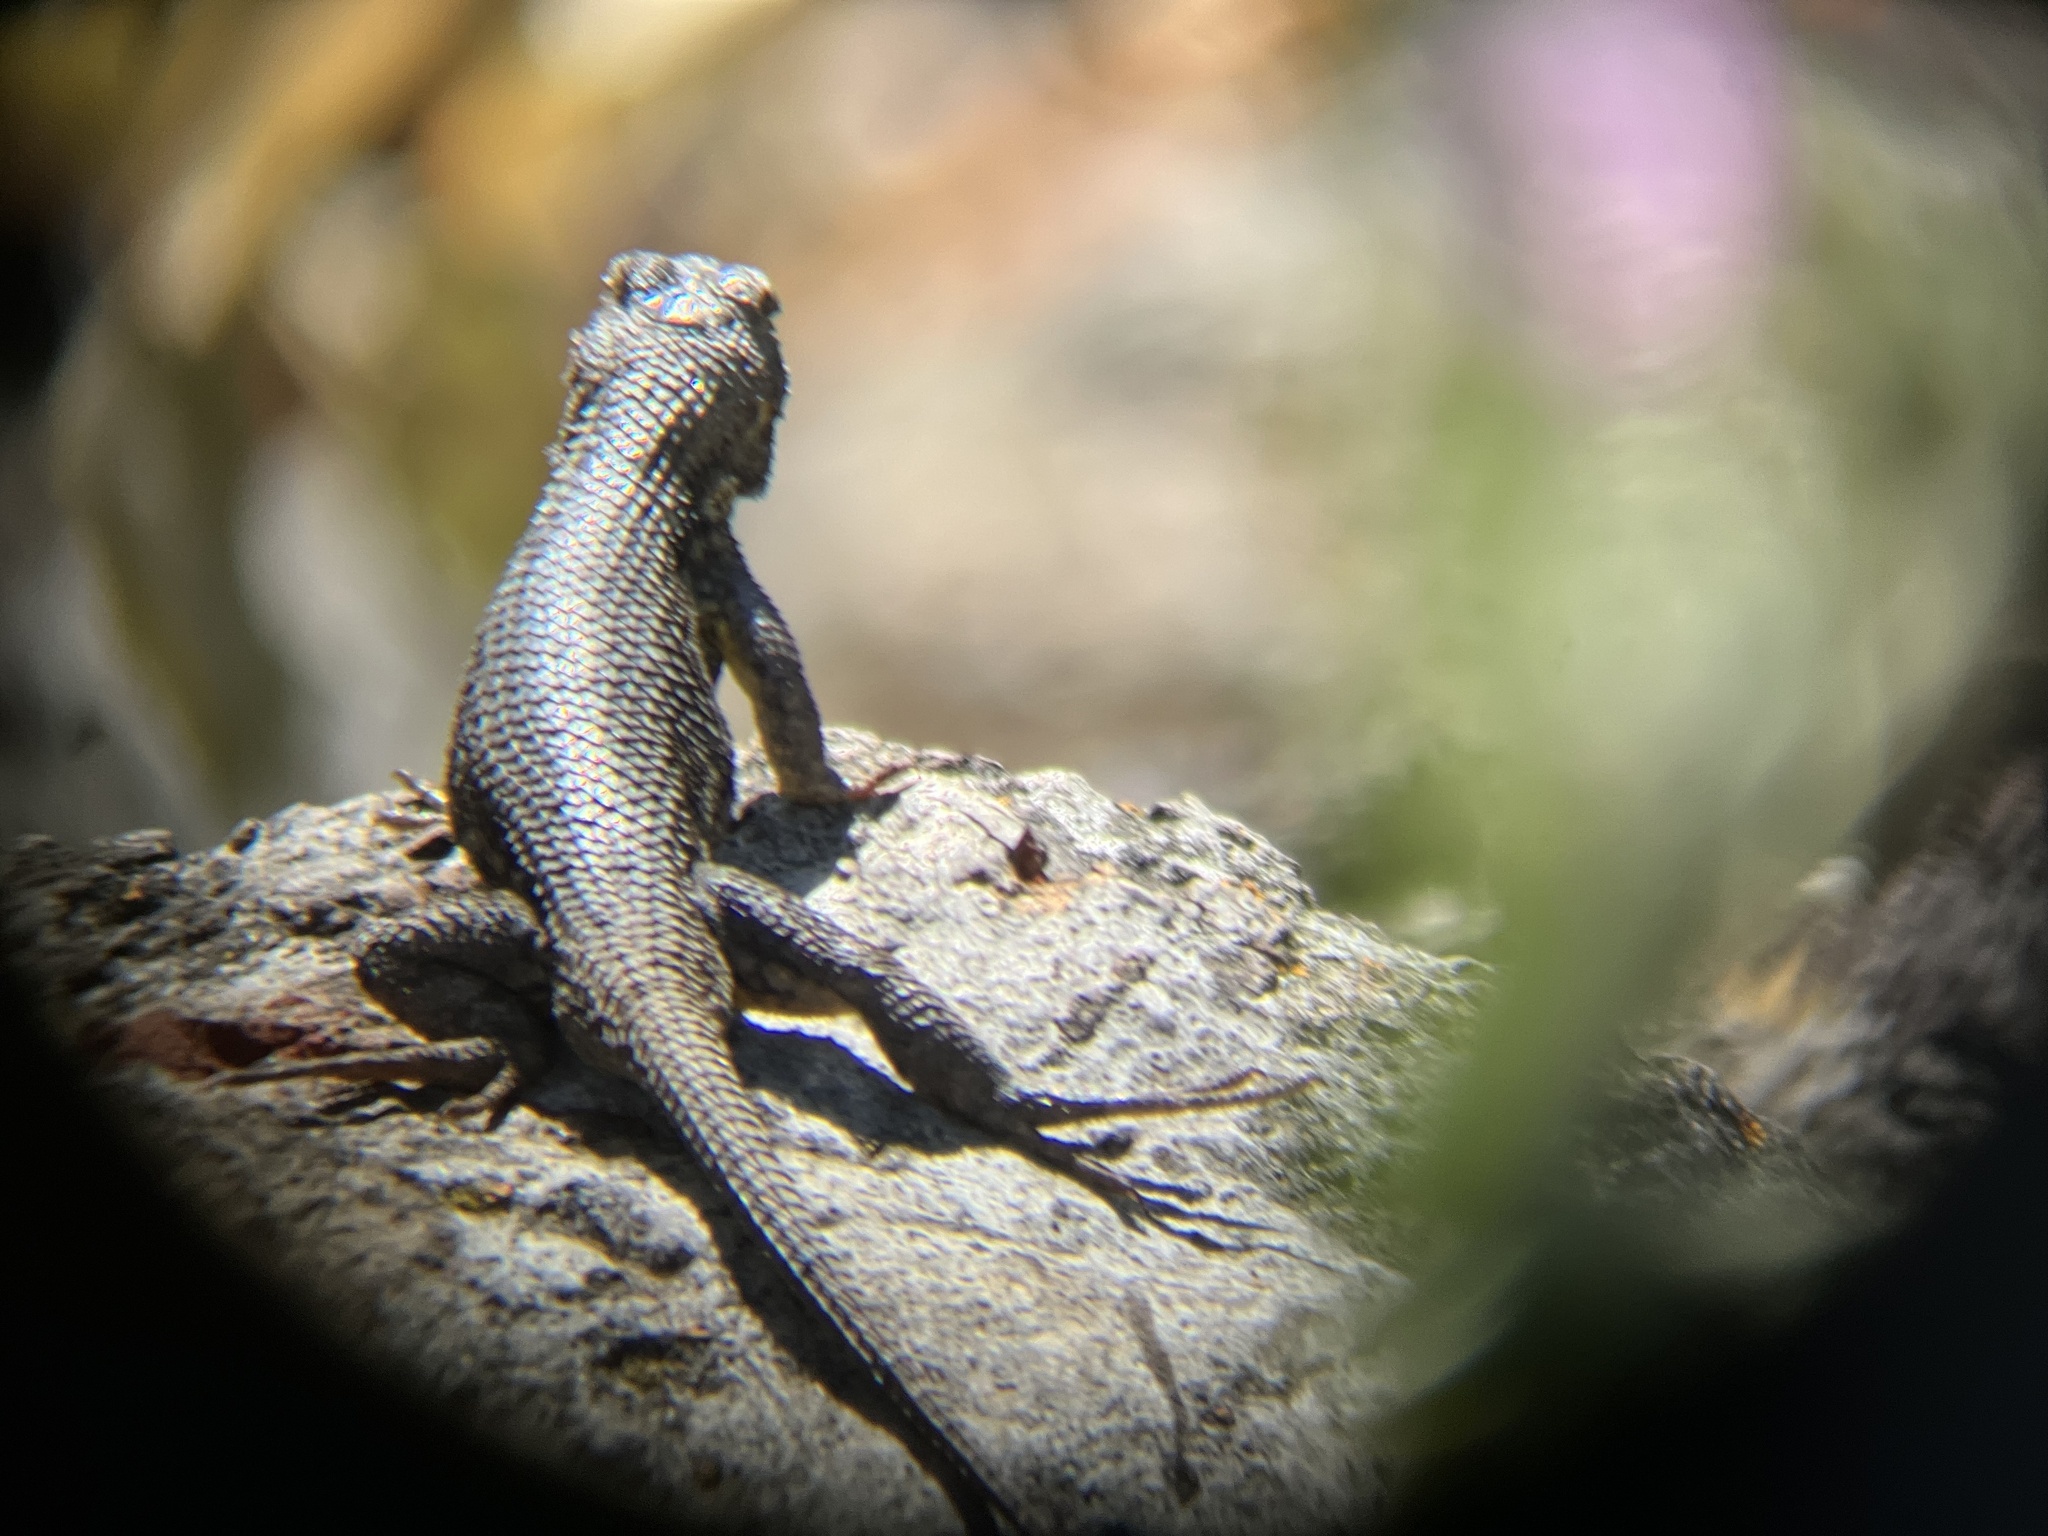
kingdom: Animalia
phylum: Chordata
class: Squamata
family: Phrynosomatidae
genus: Sceloporus
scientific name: Sceloporus occidentalis
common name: Western fence lizard
